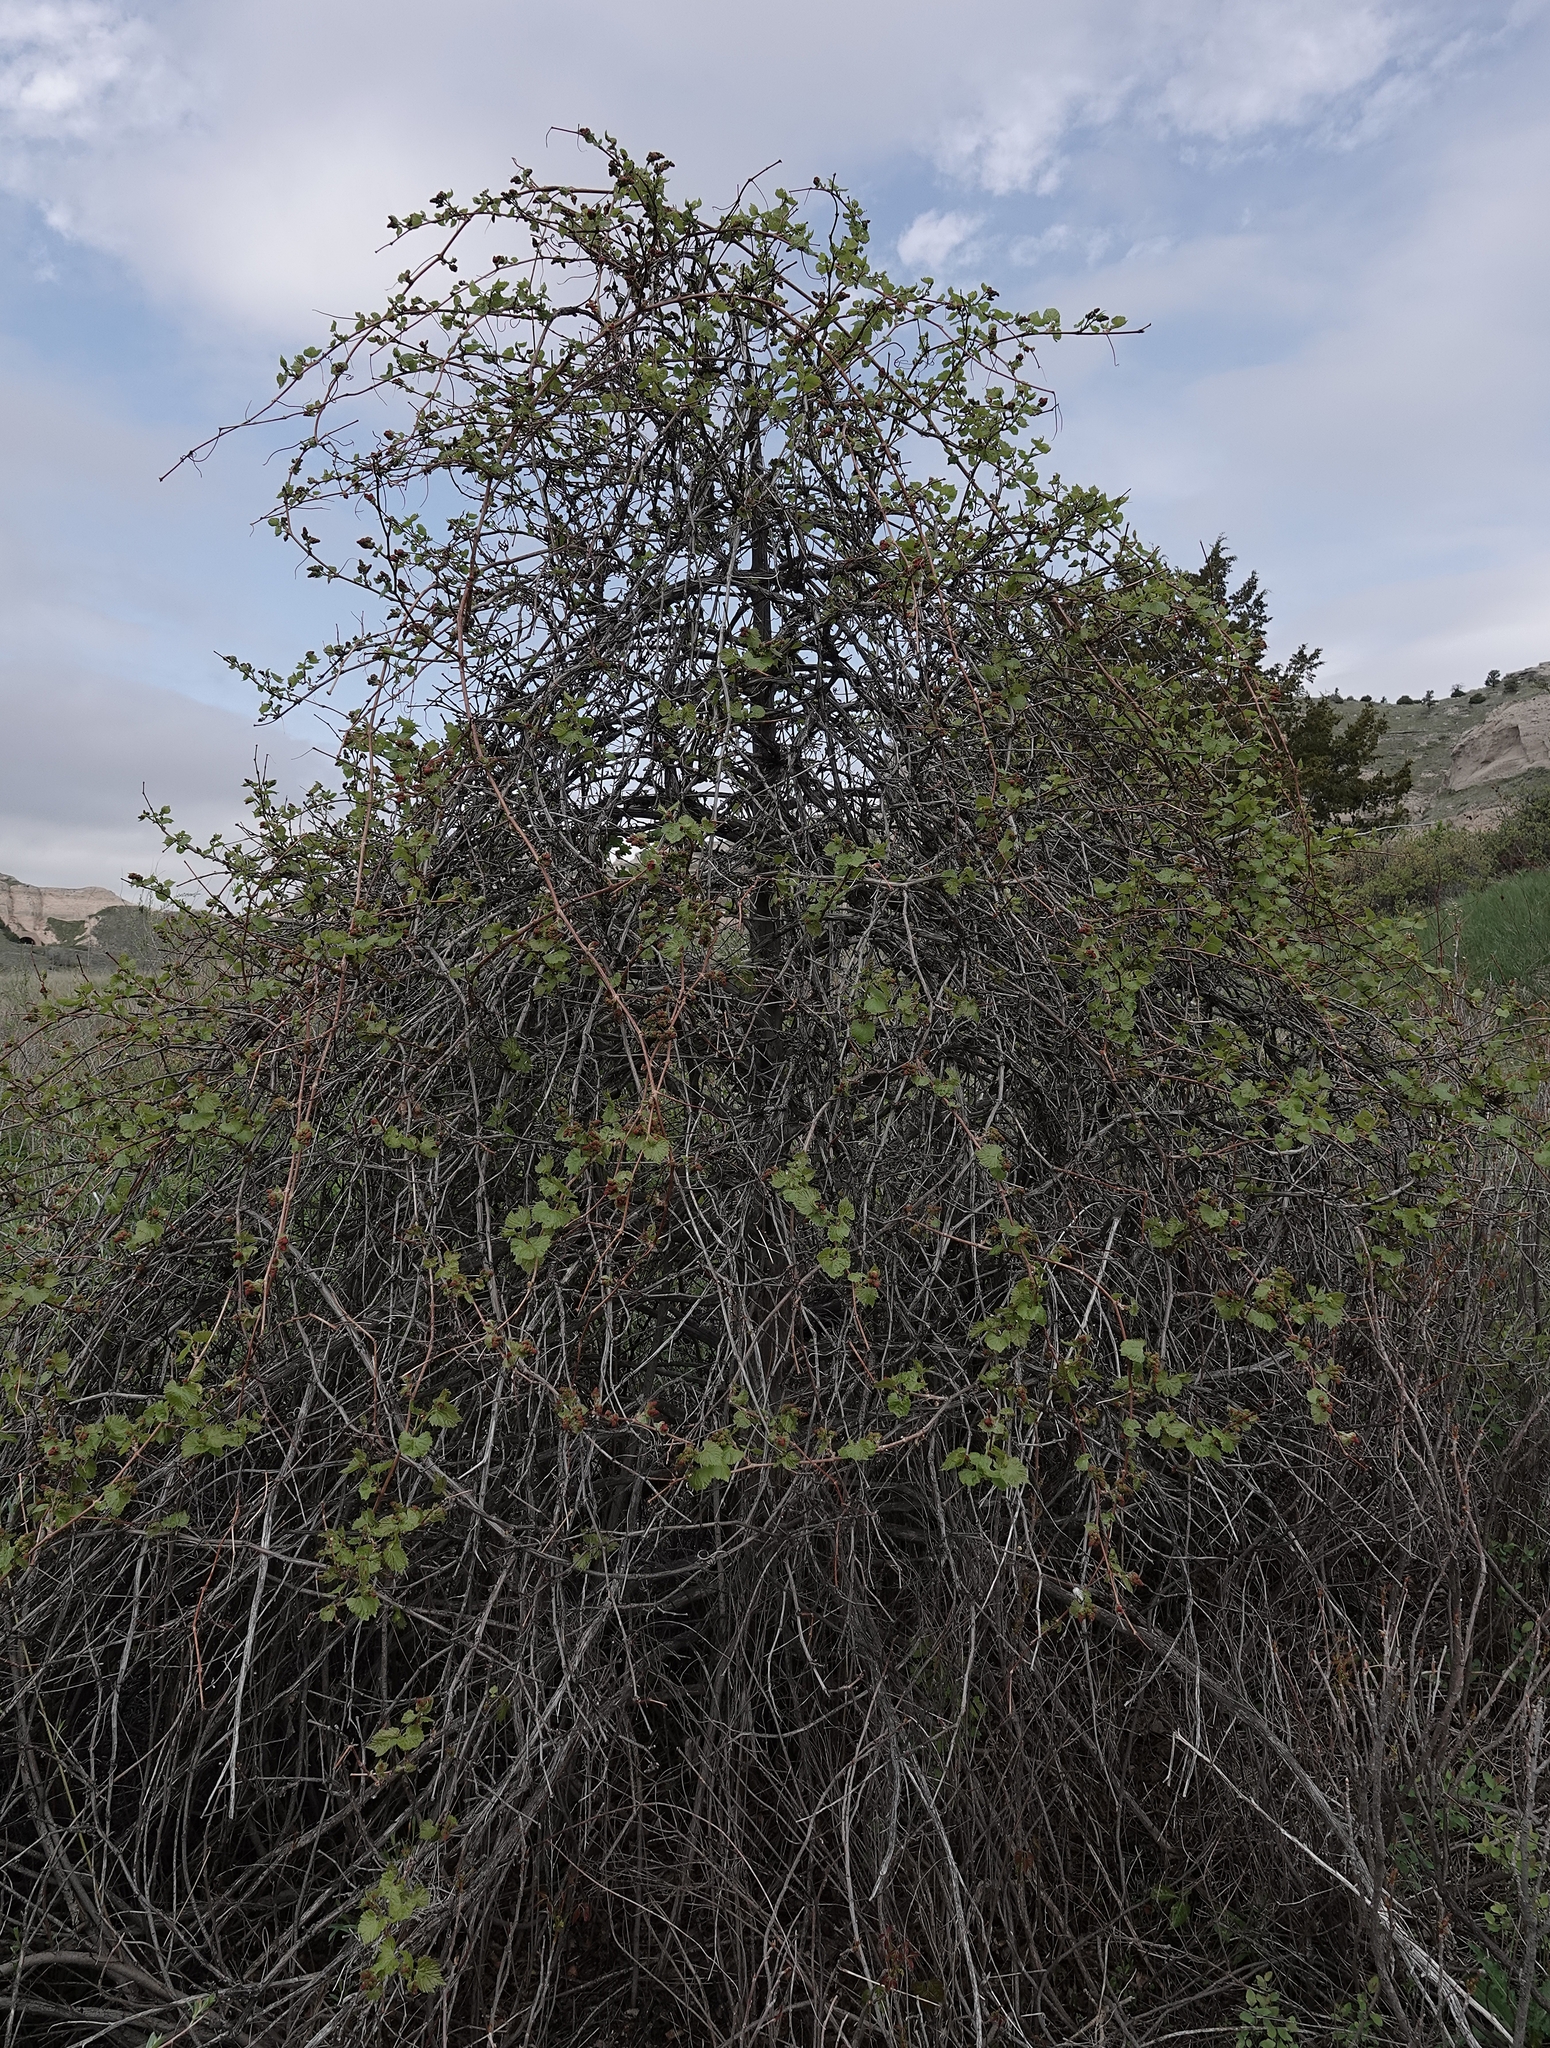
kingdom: Plantae
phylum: Tracheophyta
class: Magnoliopsida
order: Vitales
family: Vitaceae
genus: Vitis
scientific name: Vitis riparia
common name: Frost grape
